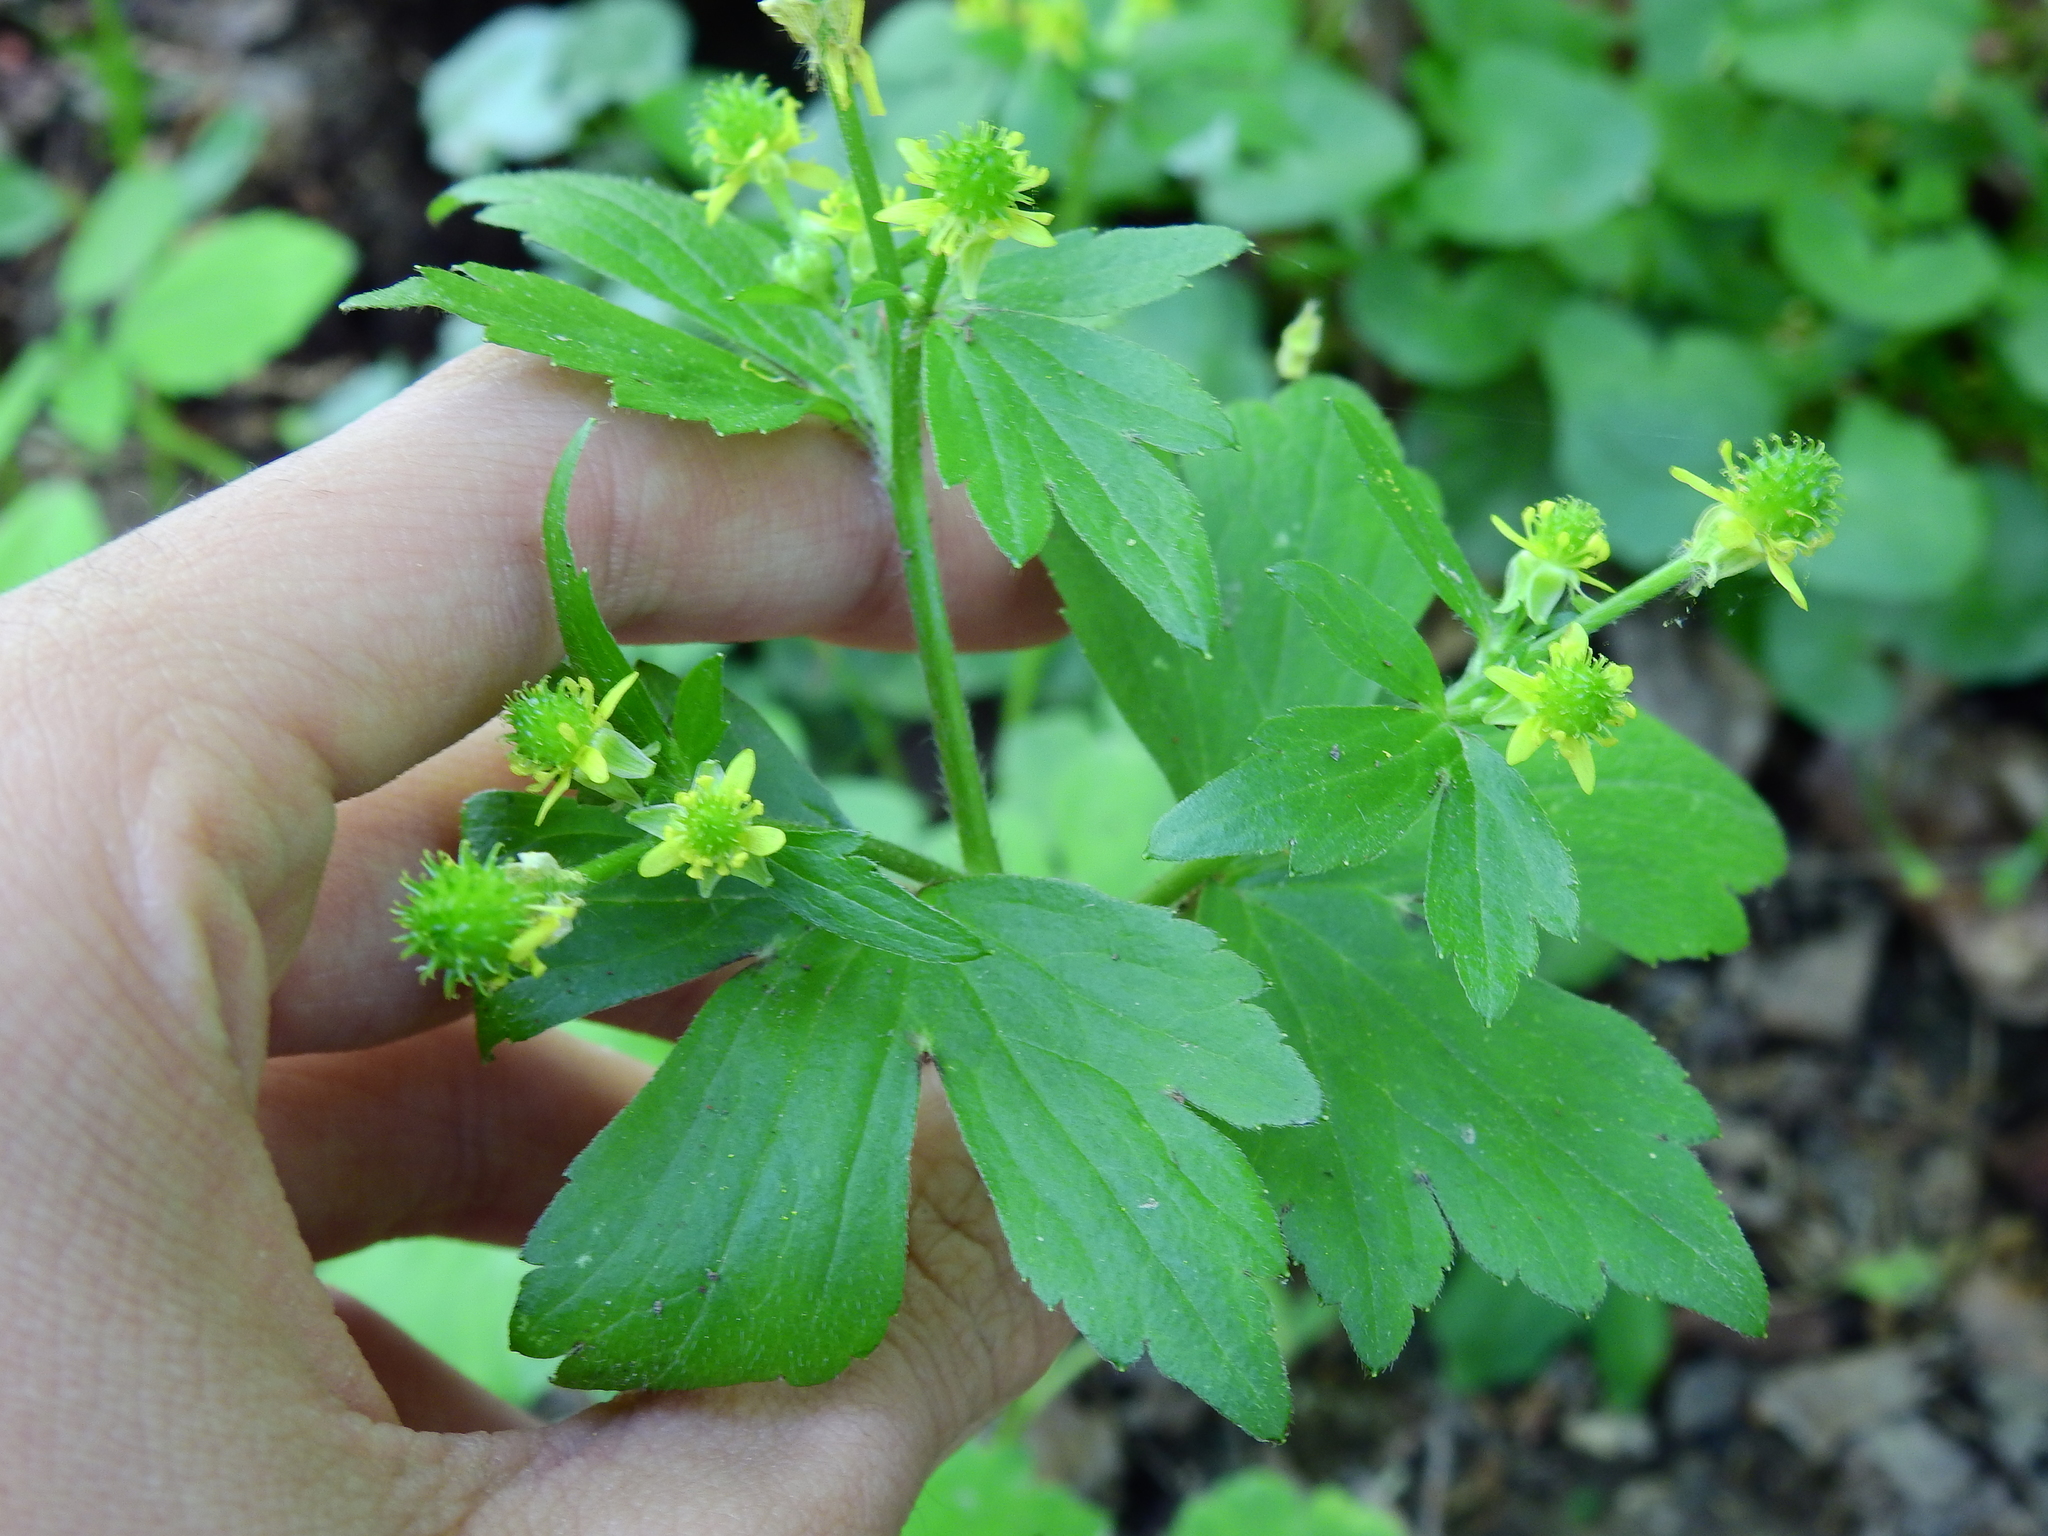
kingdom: Plantae
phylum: Tracheophyta
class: Magnoliopsida
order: Ranunculales
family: Ranunculaceae
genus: Ranunculus
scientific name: Ranunculus recurvatus
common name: Blisterwort
